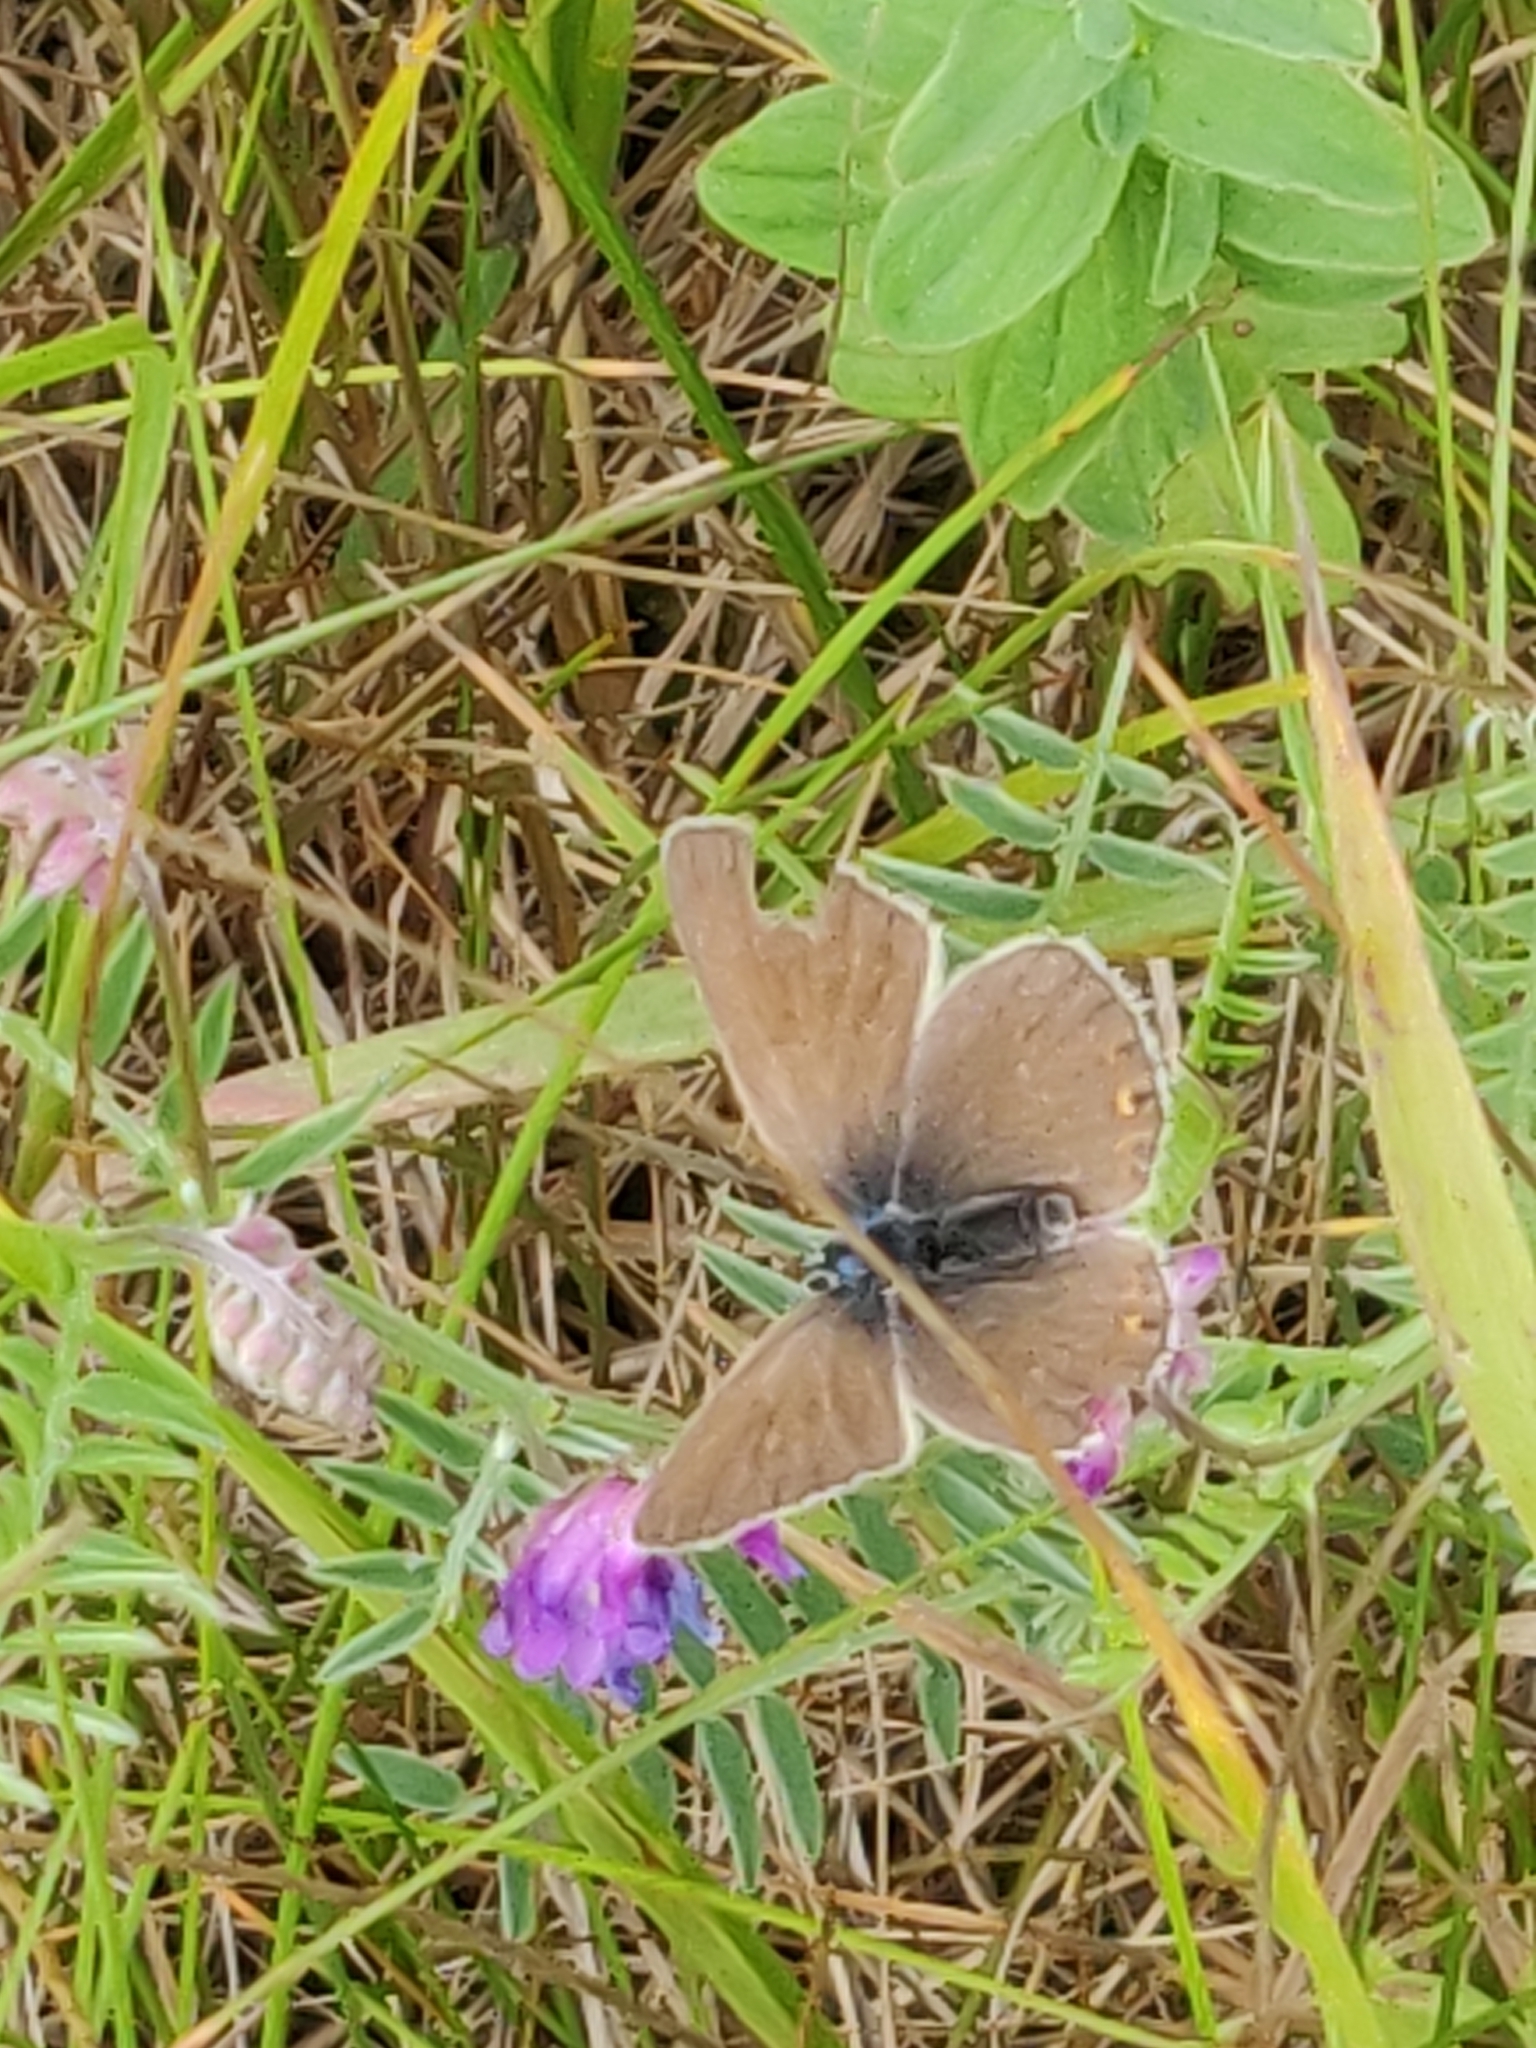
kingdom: Animalia
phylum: Arthropoda
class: Insecta
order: Lepidoptera
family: Lycaenidae
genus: Plebejus
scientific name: Plebejus amanda
